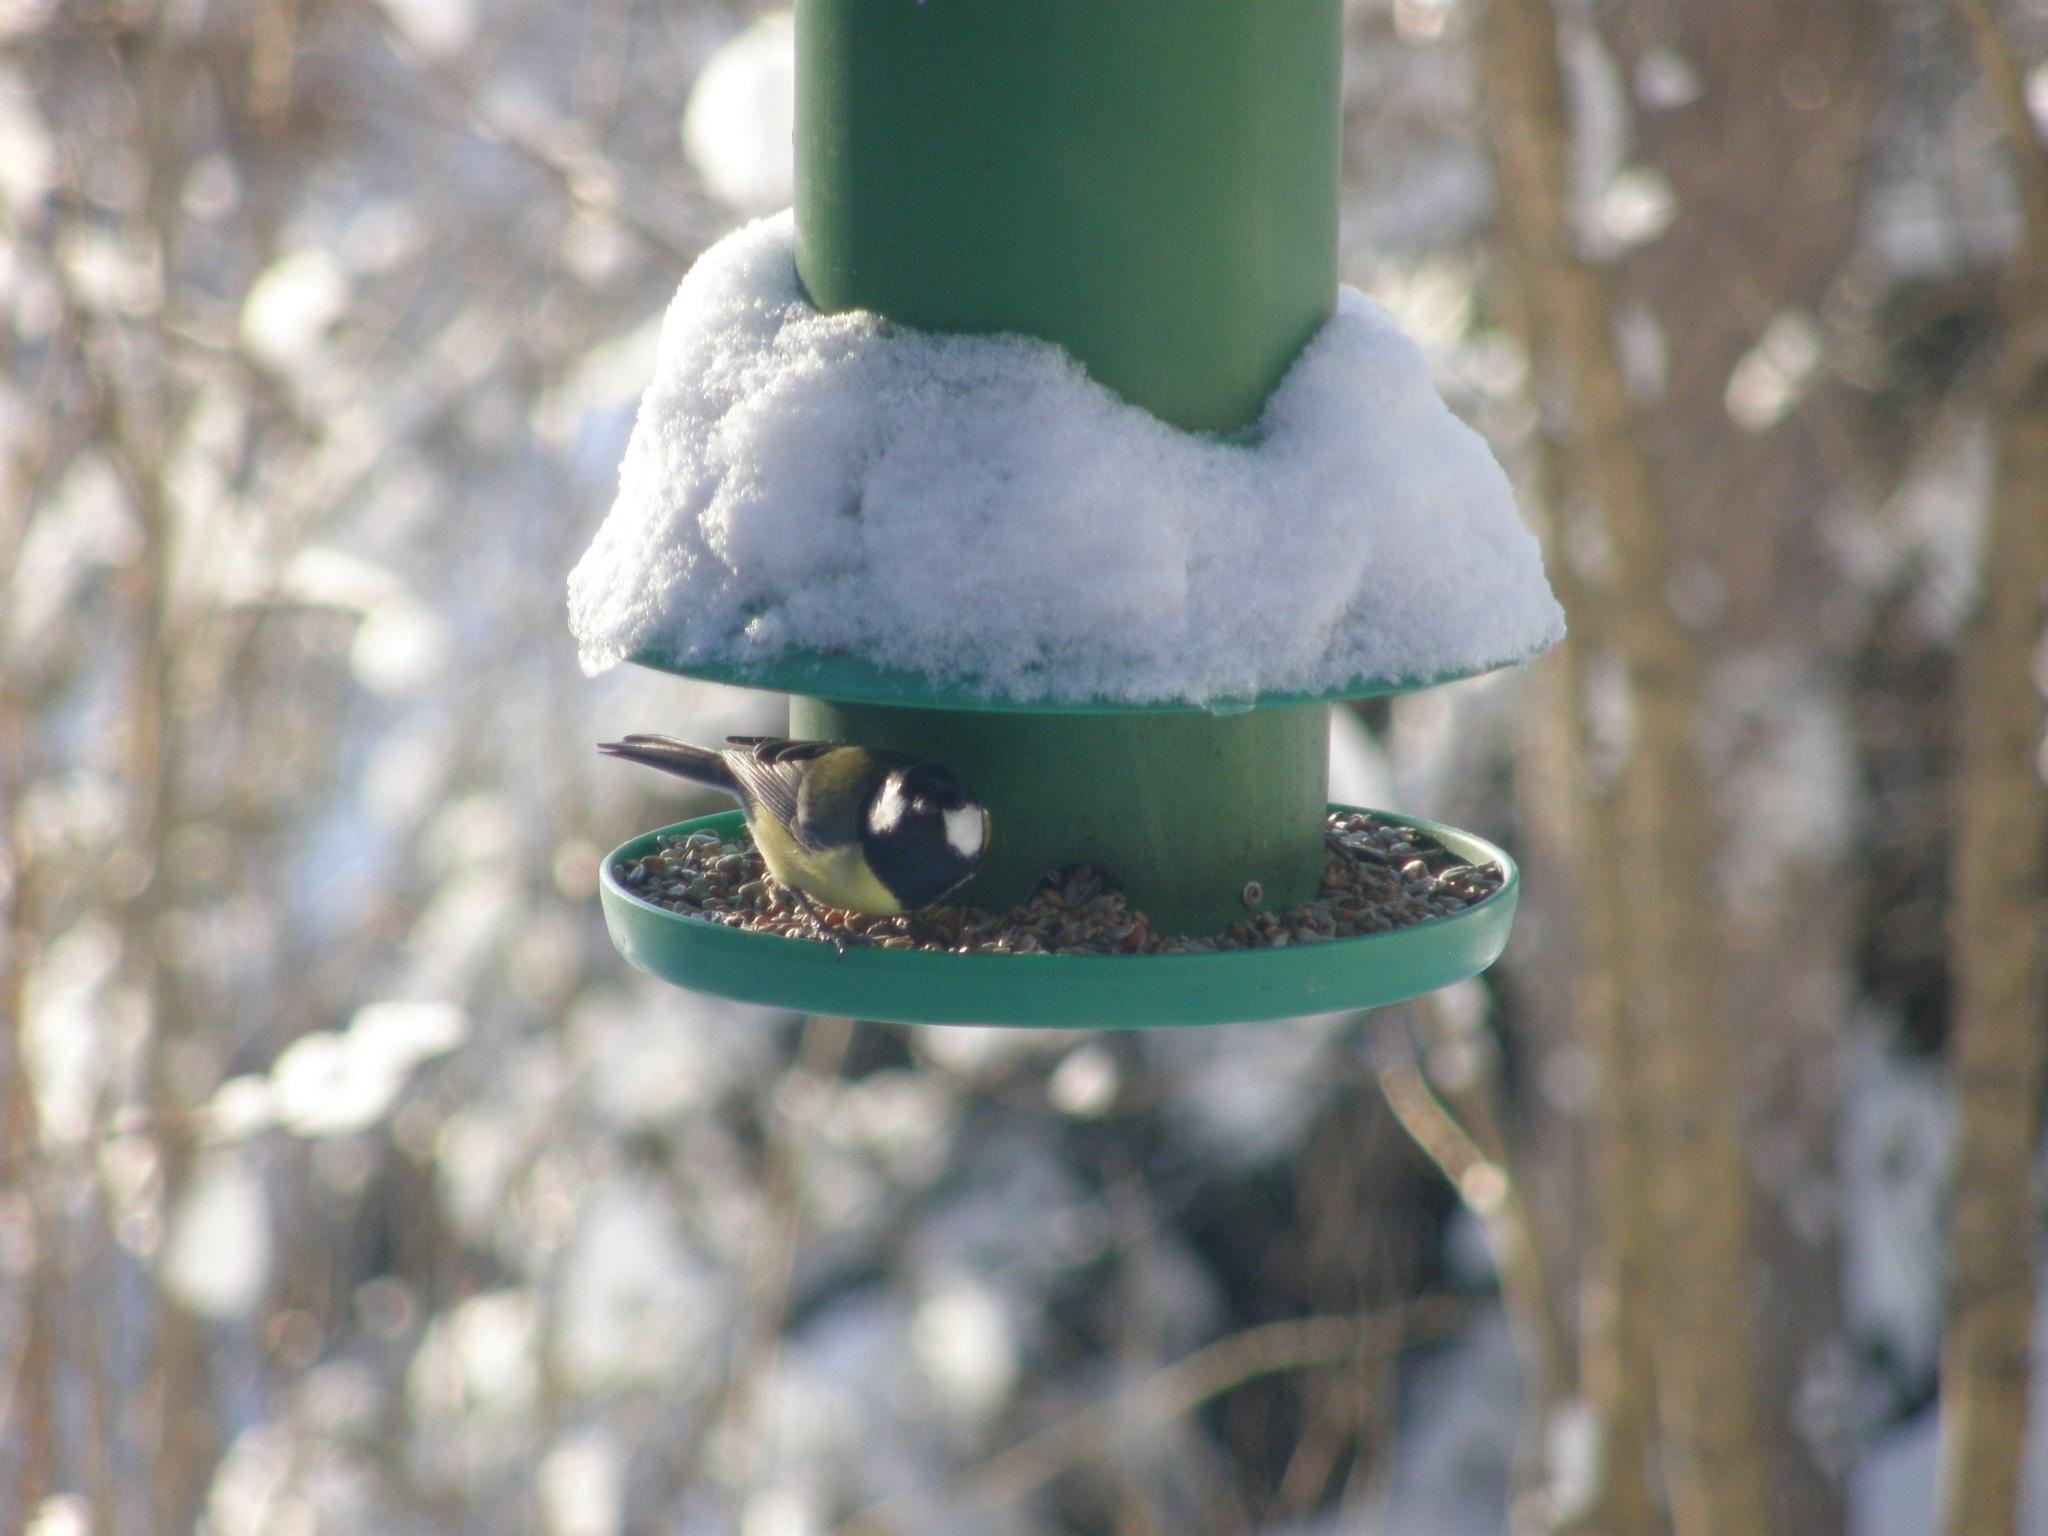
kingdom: Animalia
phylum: Chordata
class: Aves
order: Passeriformes
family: Paridae
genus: Parus
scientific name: Parus major
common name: Great tit
